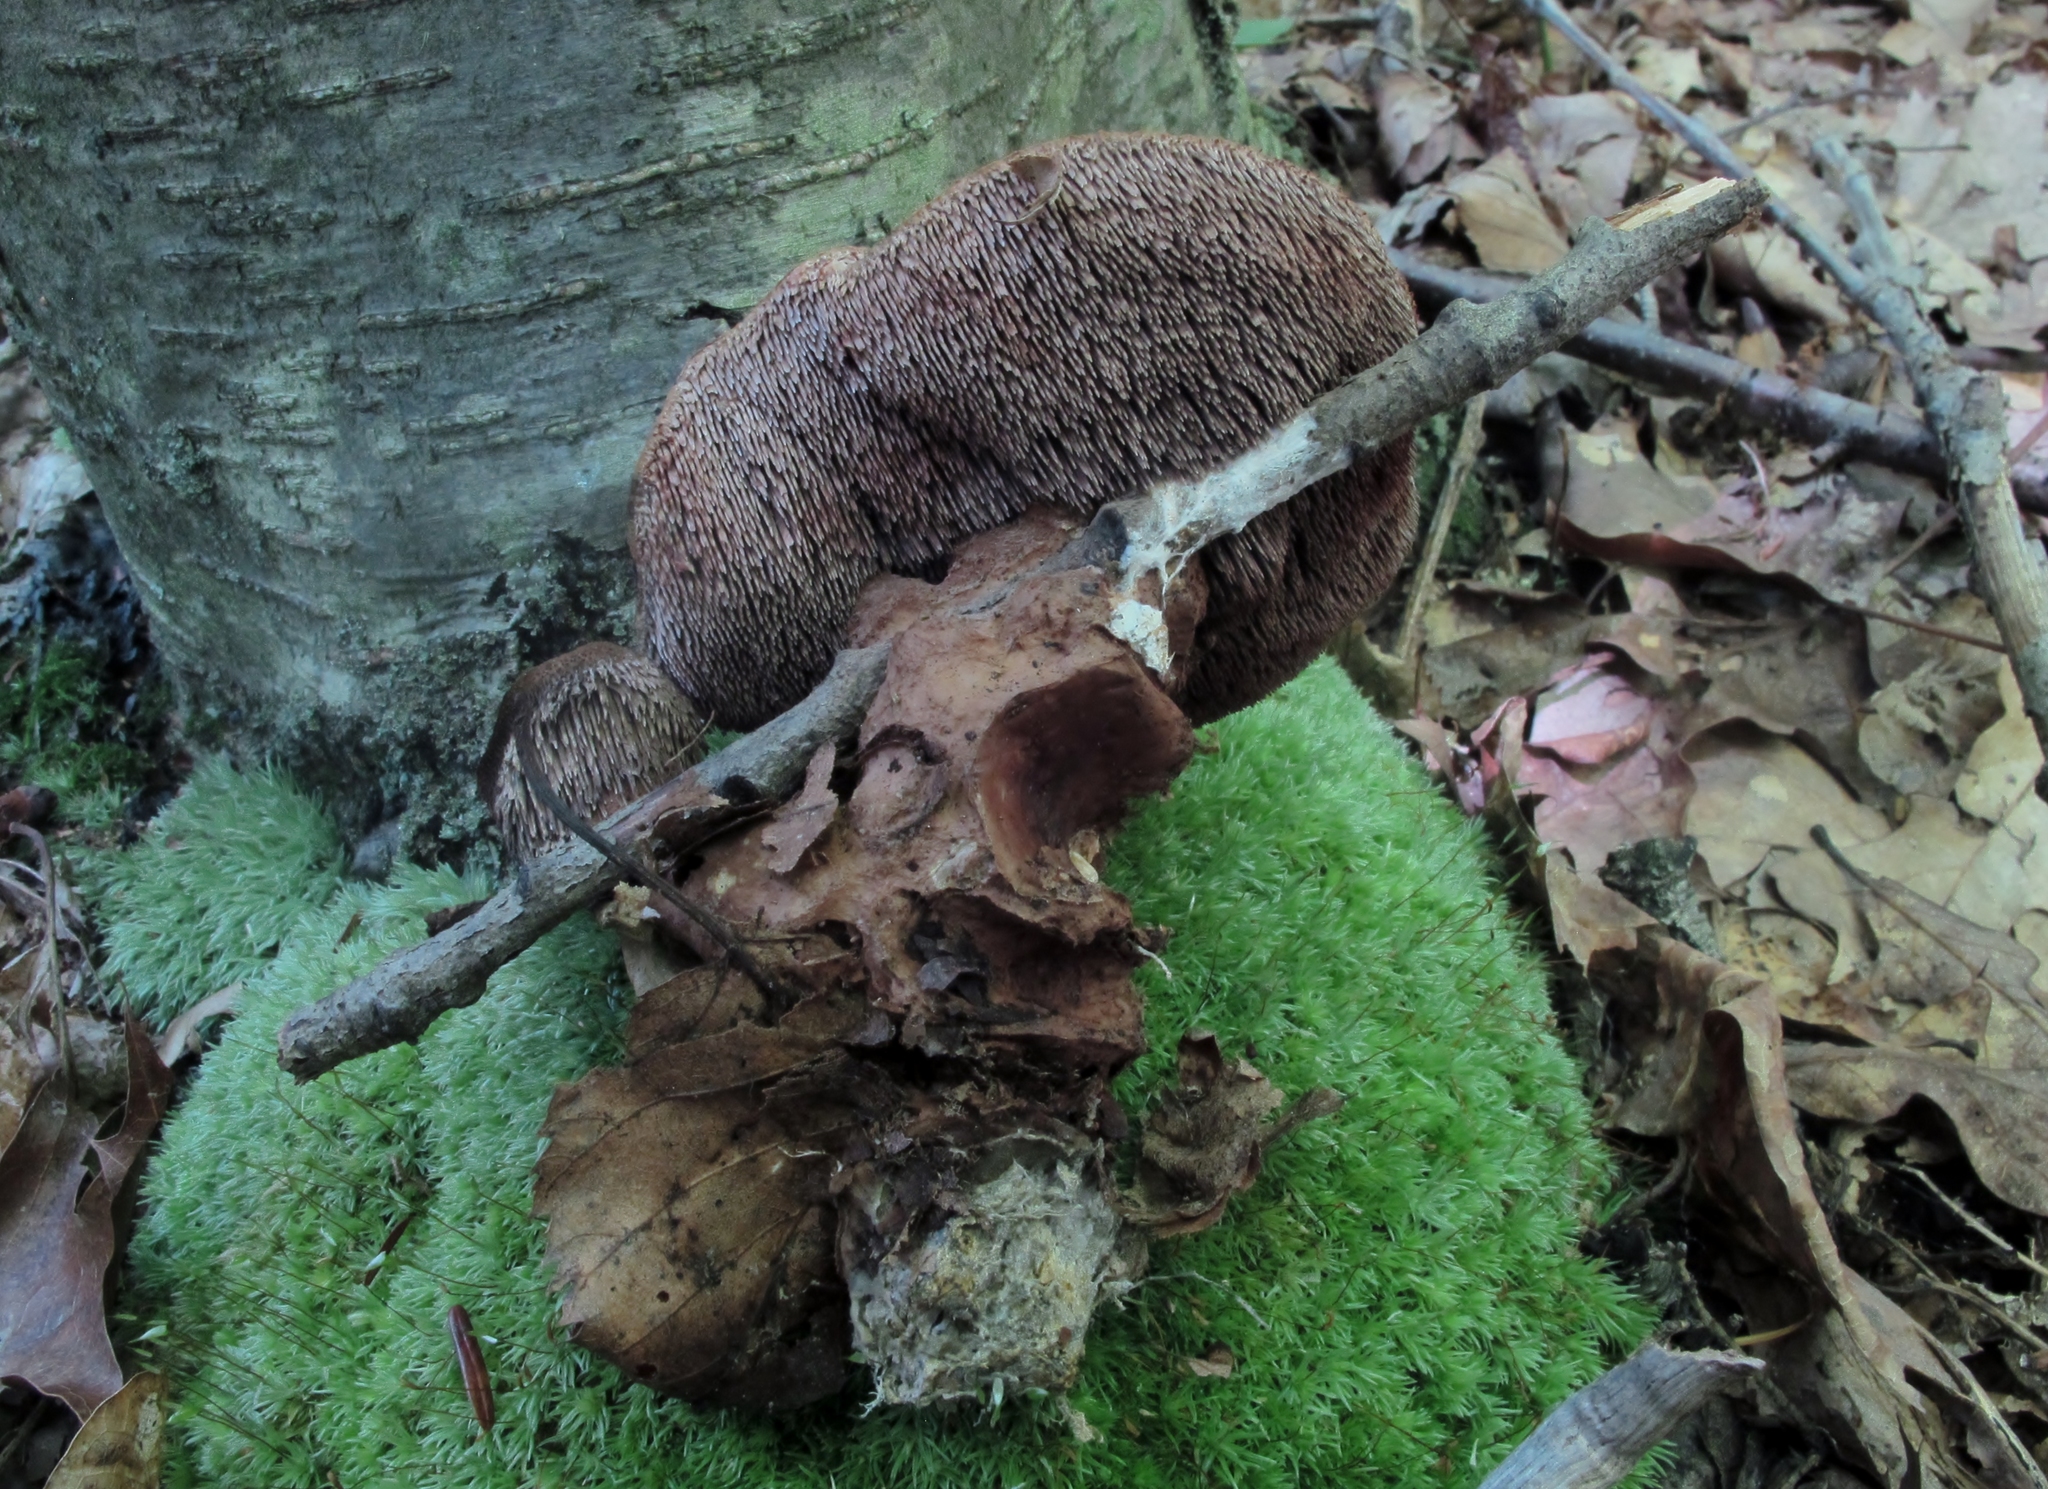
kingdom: Fungi
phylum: Basidiomycota
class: Agaricomycetes
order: Thelephorales
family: Bankeraceae
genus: Hydnellum
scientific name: Hydnellum spongiosipes
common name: Velvet tooth
